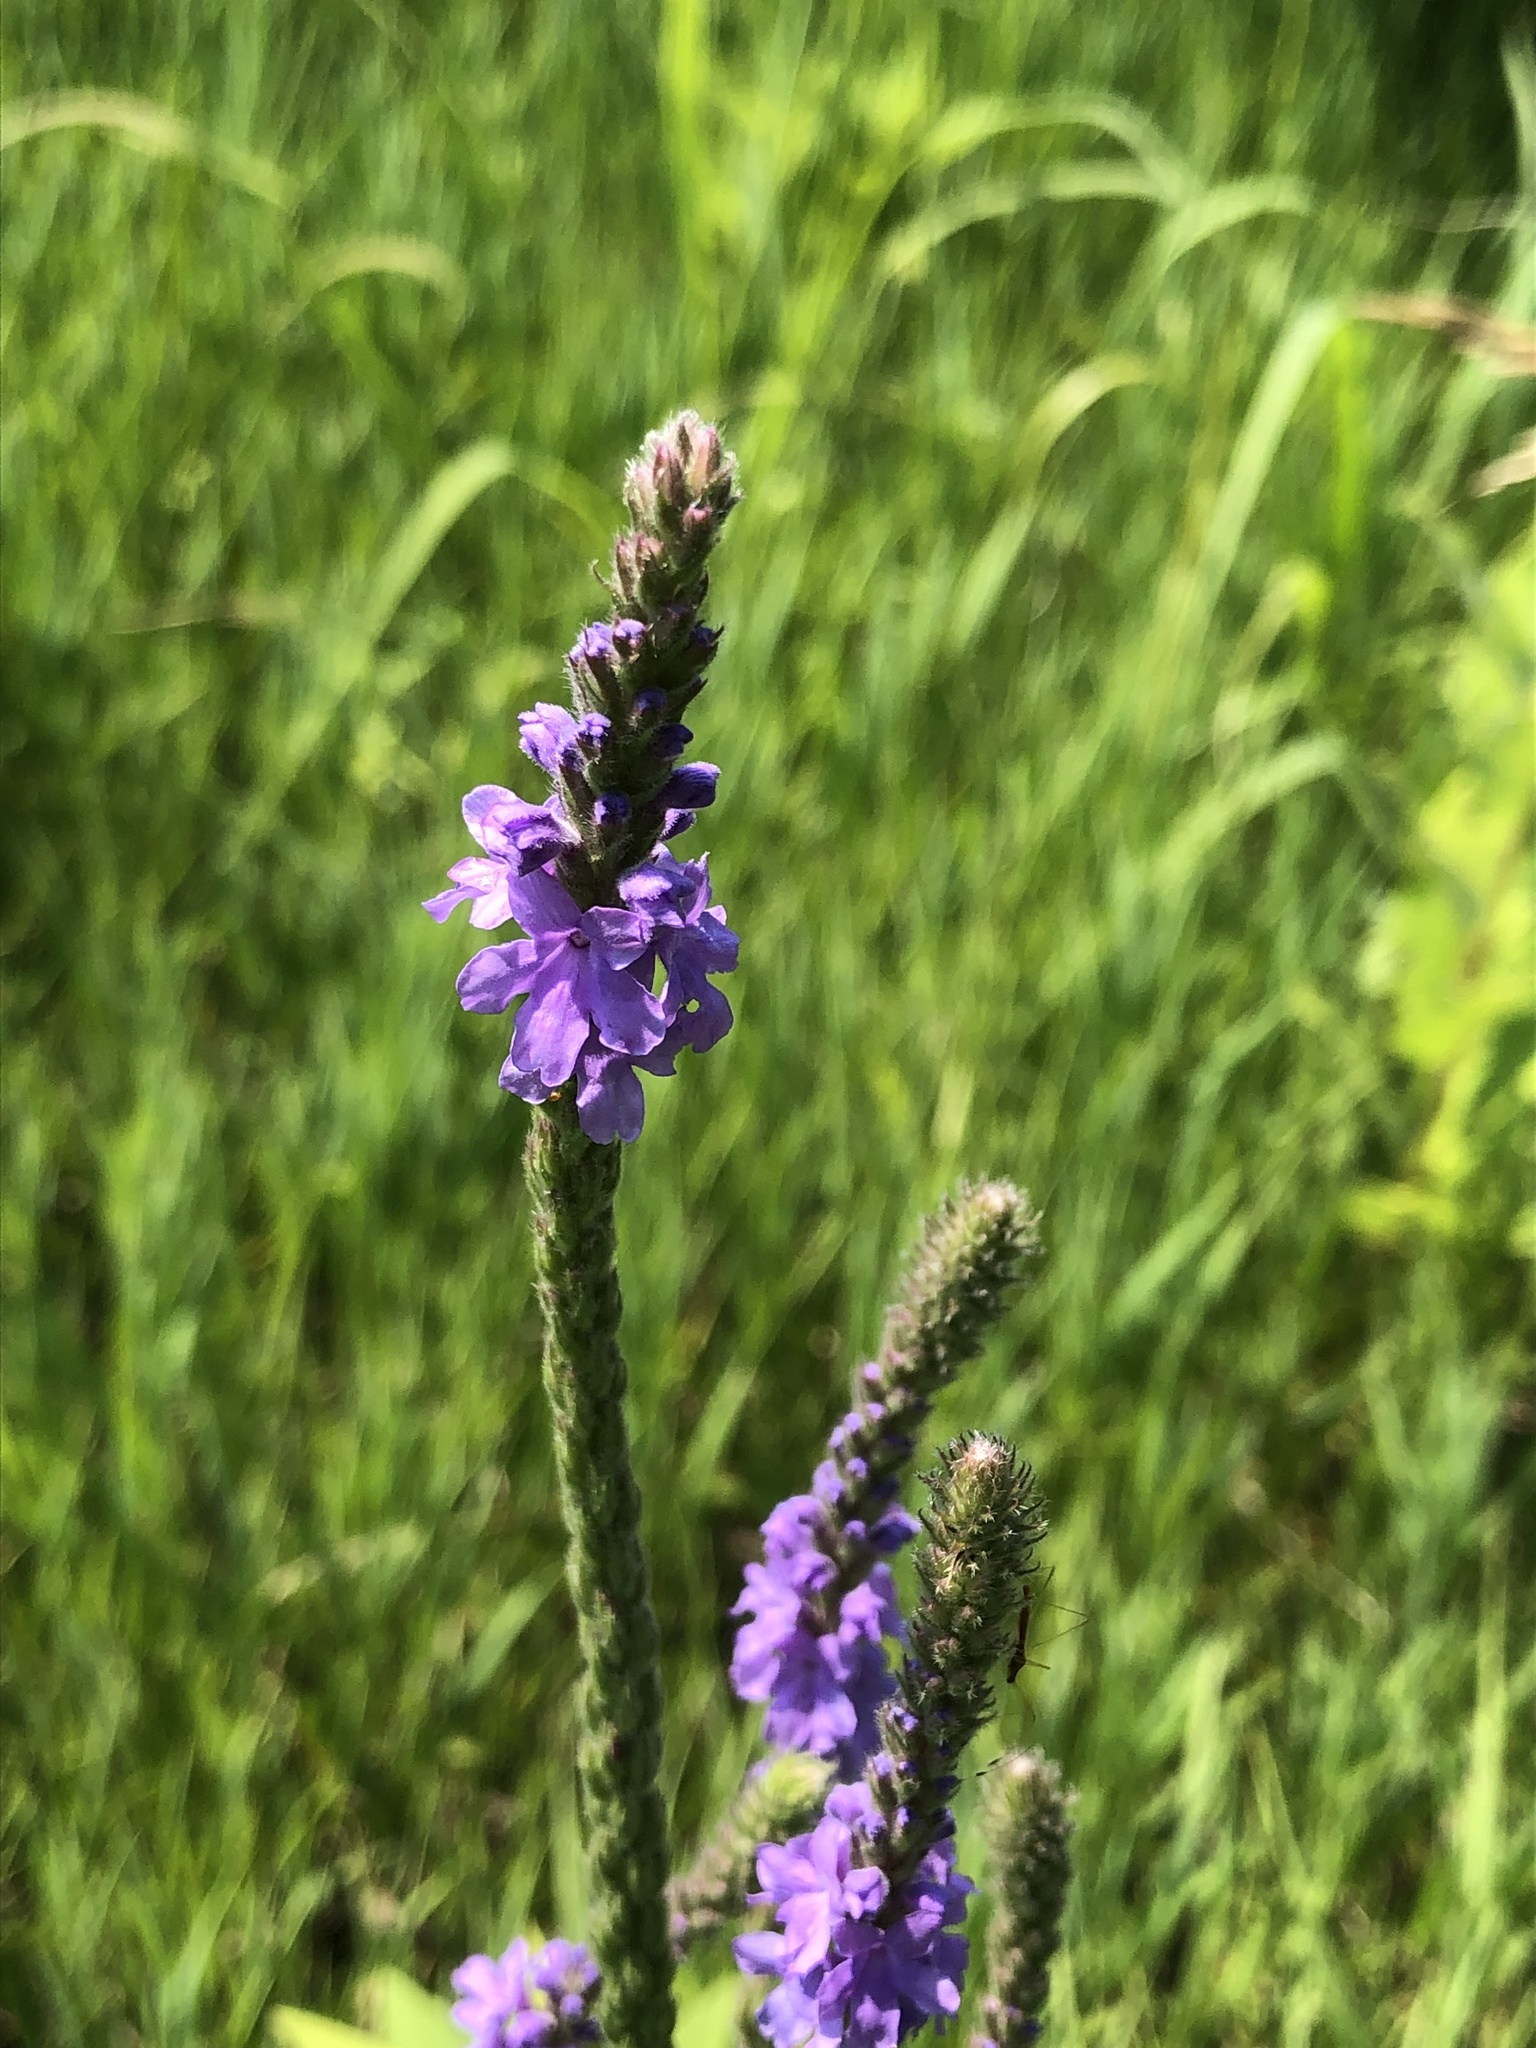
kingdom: Plantae
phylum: Tracheophyta
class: Magnoliopsida
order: Lamiales
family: Verbenaceae
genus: Verbena
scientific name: Verbena stricta
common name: Hoary vervain
